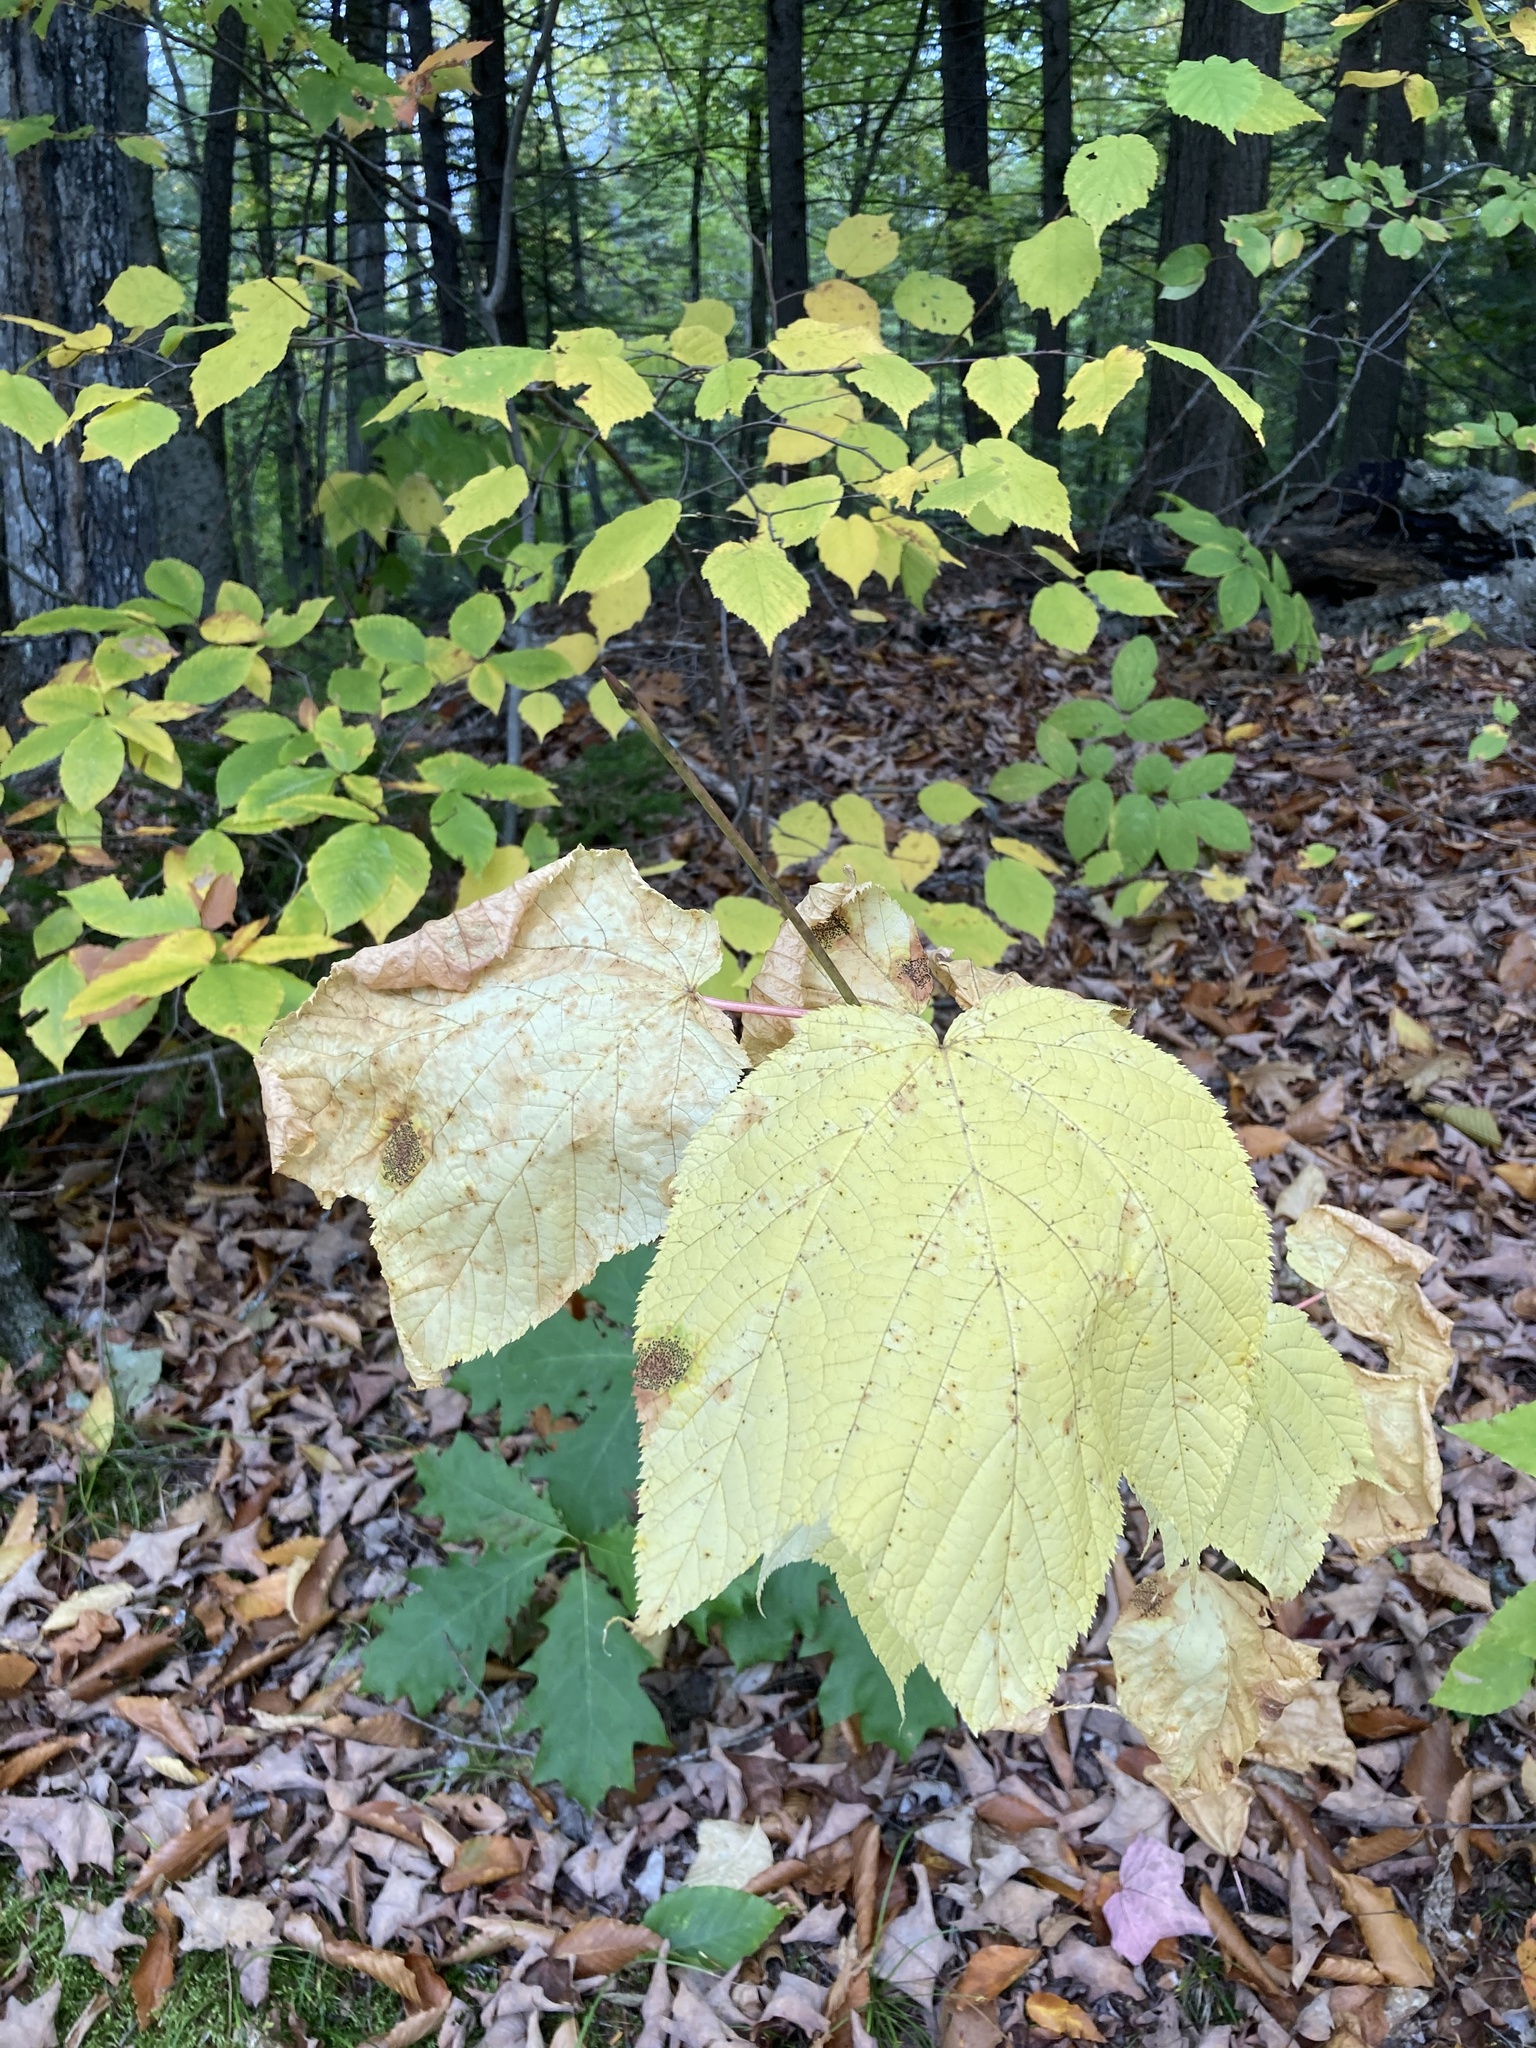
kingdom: Plantae
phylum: Tracheophyta
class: Magnoliopsida
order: Sapindales
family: Sapindaceae
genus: Acer
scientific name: Acer pensylvanicum
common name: Moosewood
